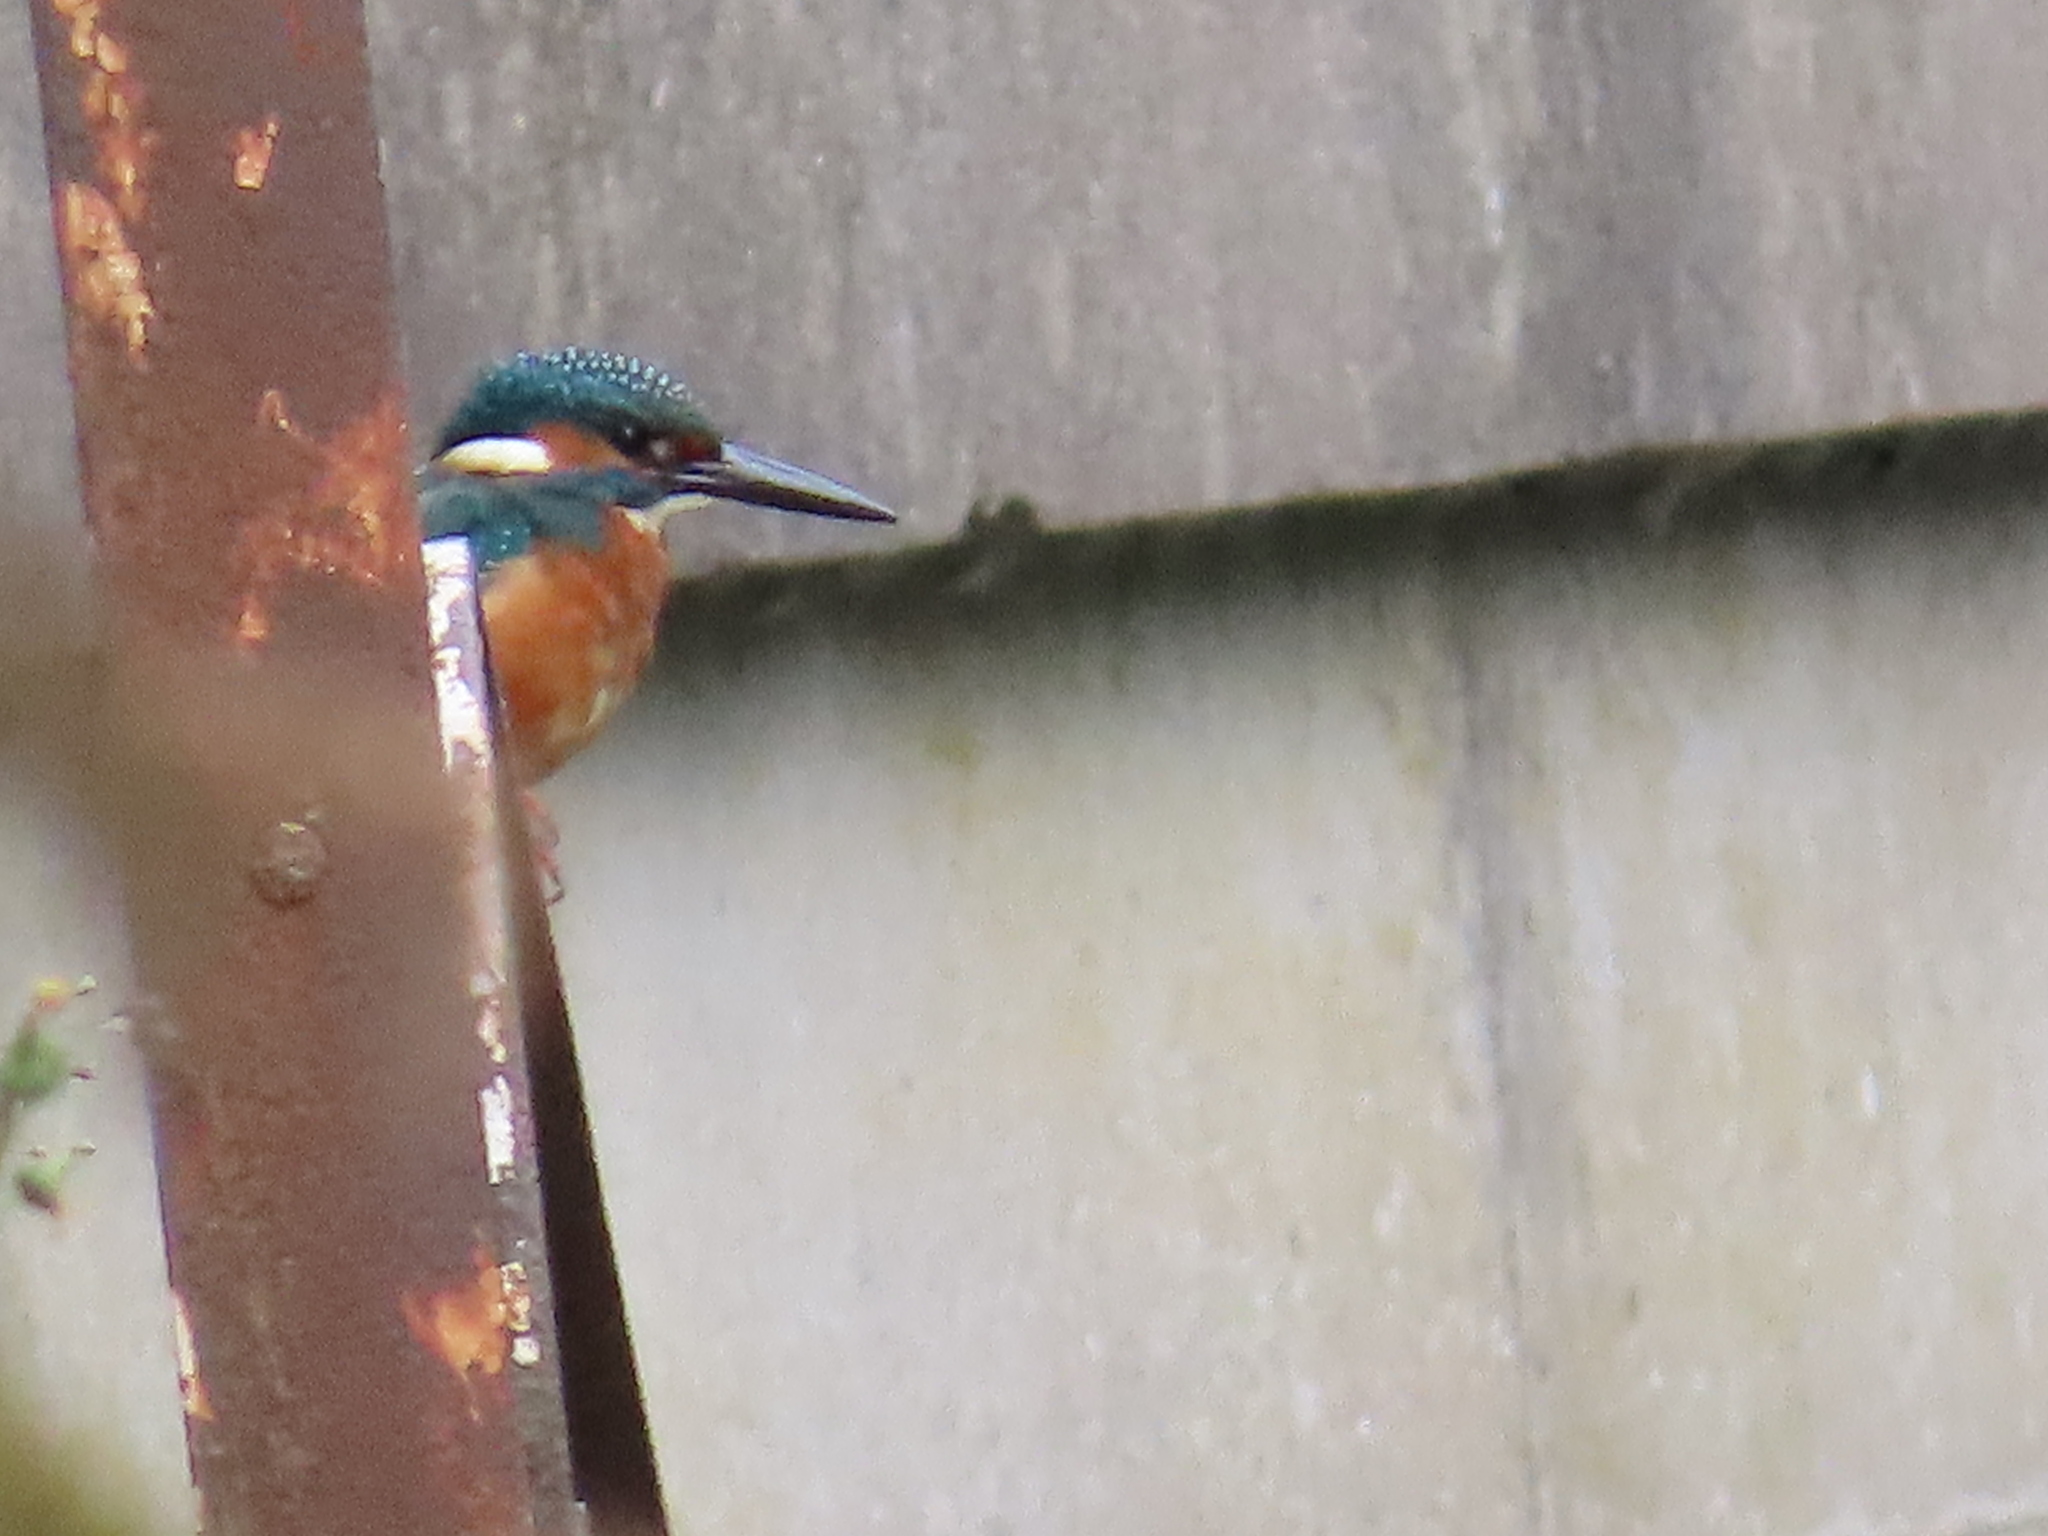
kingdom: Animalia
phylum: Chordata
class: Aves
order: Coraciiformes
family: Alcedinidae
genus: Alcedo
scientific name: Alcedo atthis
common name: Common kingfisher
